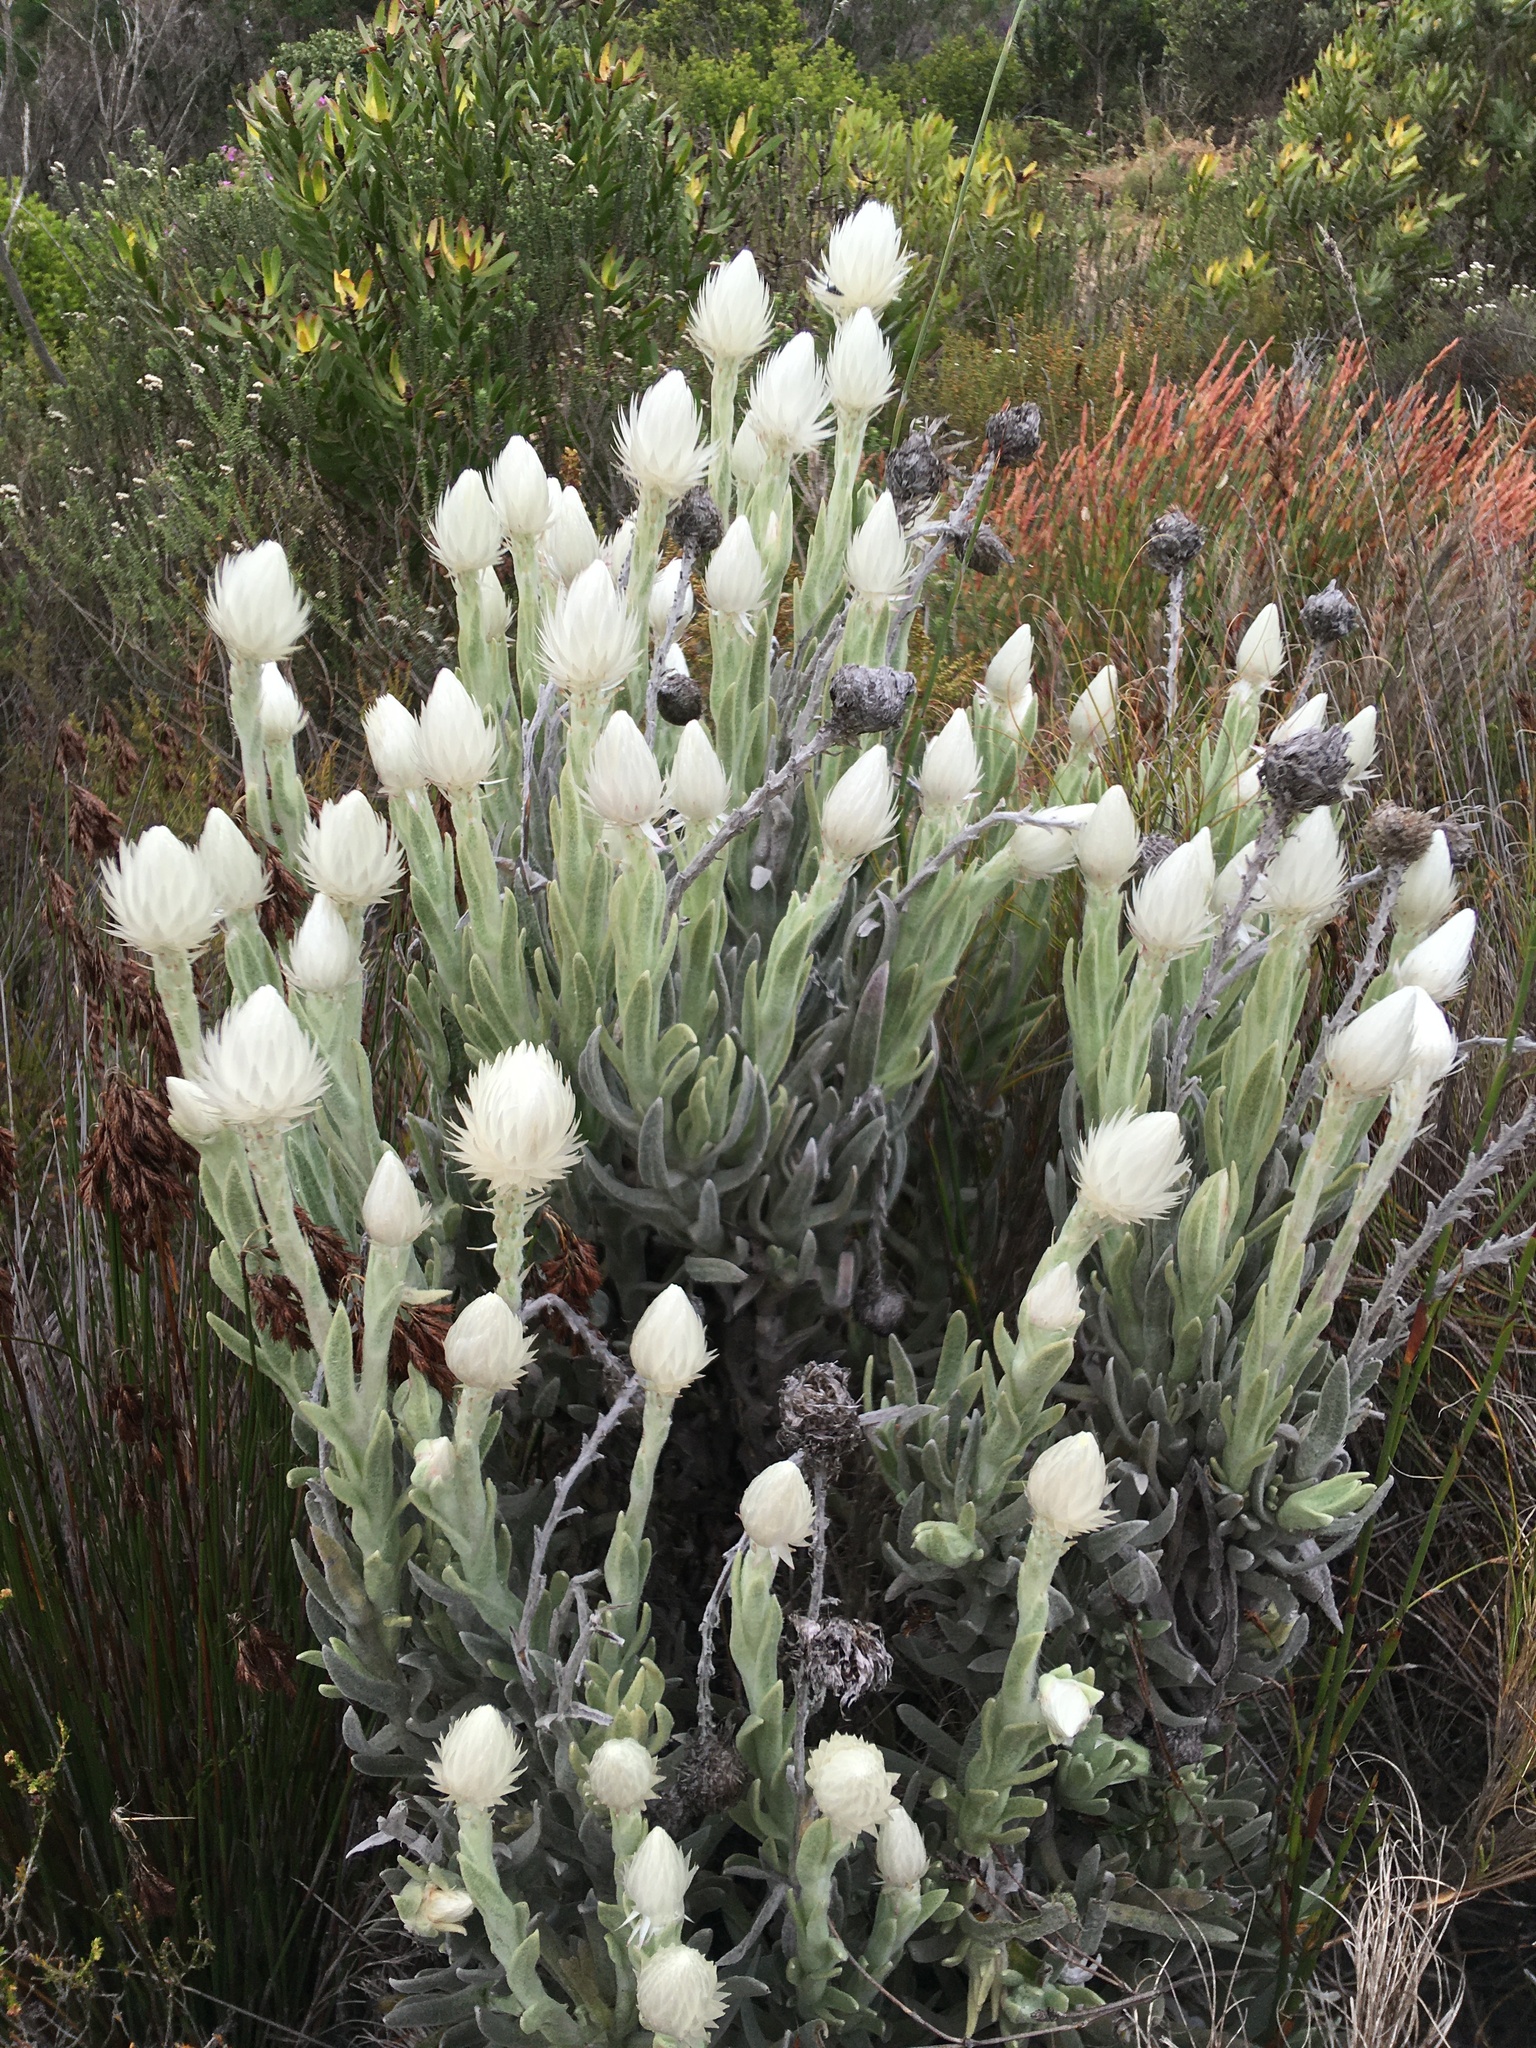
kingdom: Plantae
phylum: Tracheophyta
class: Magnoliopsida
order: Asterales
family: Asteraceae
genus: Syncarpha
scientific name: Syncarpha vestita
